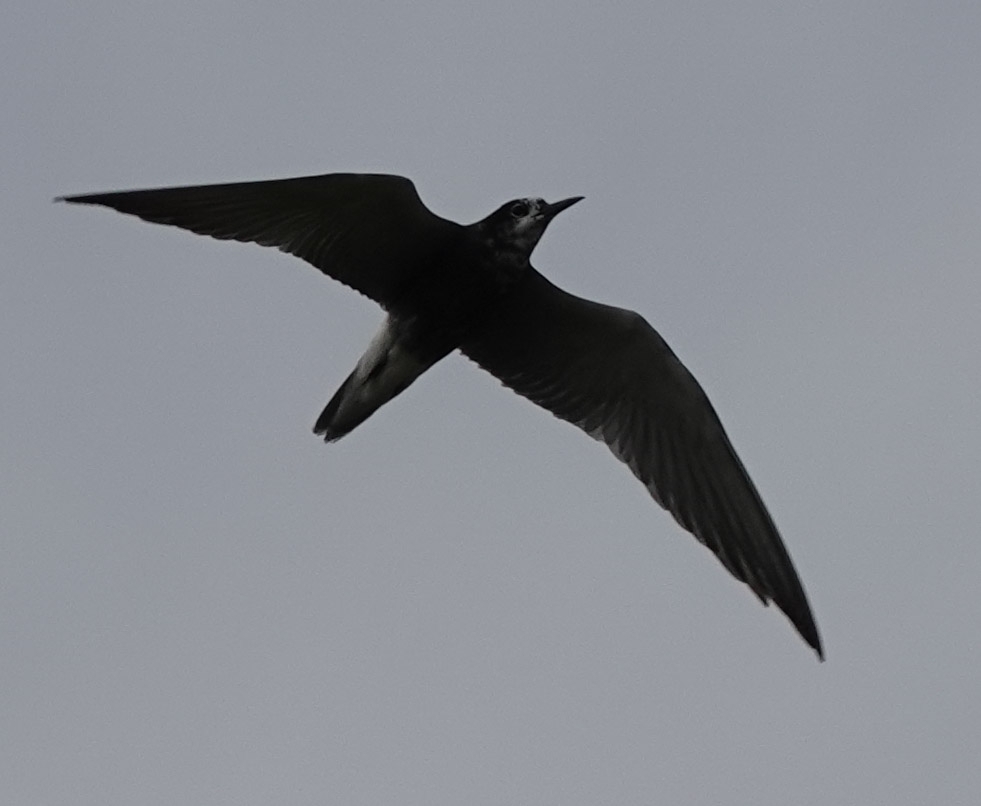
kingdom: Animalia
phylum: Chordata
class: Aves
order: Charadriiformes
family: Laridae
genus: Chlidonias
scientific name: Chlidonias niger
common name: Black tern
